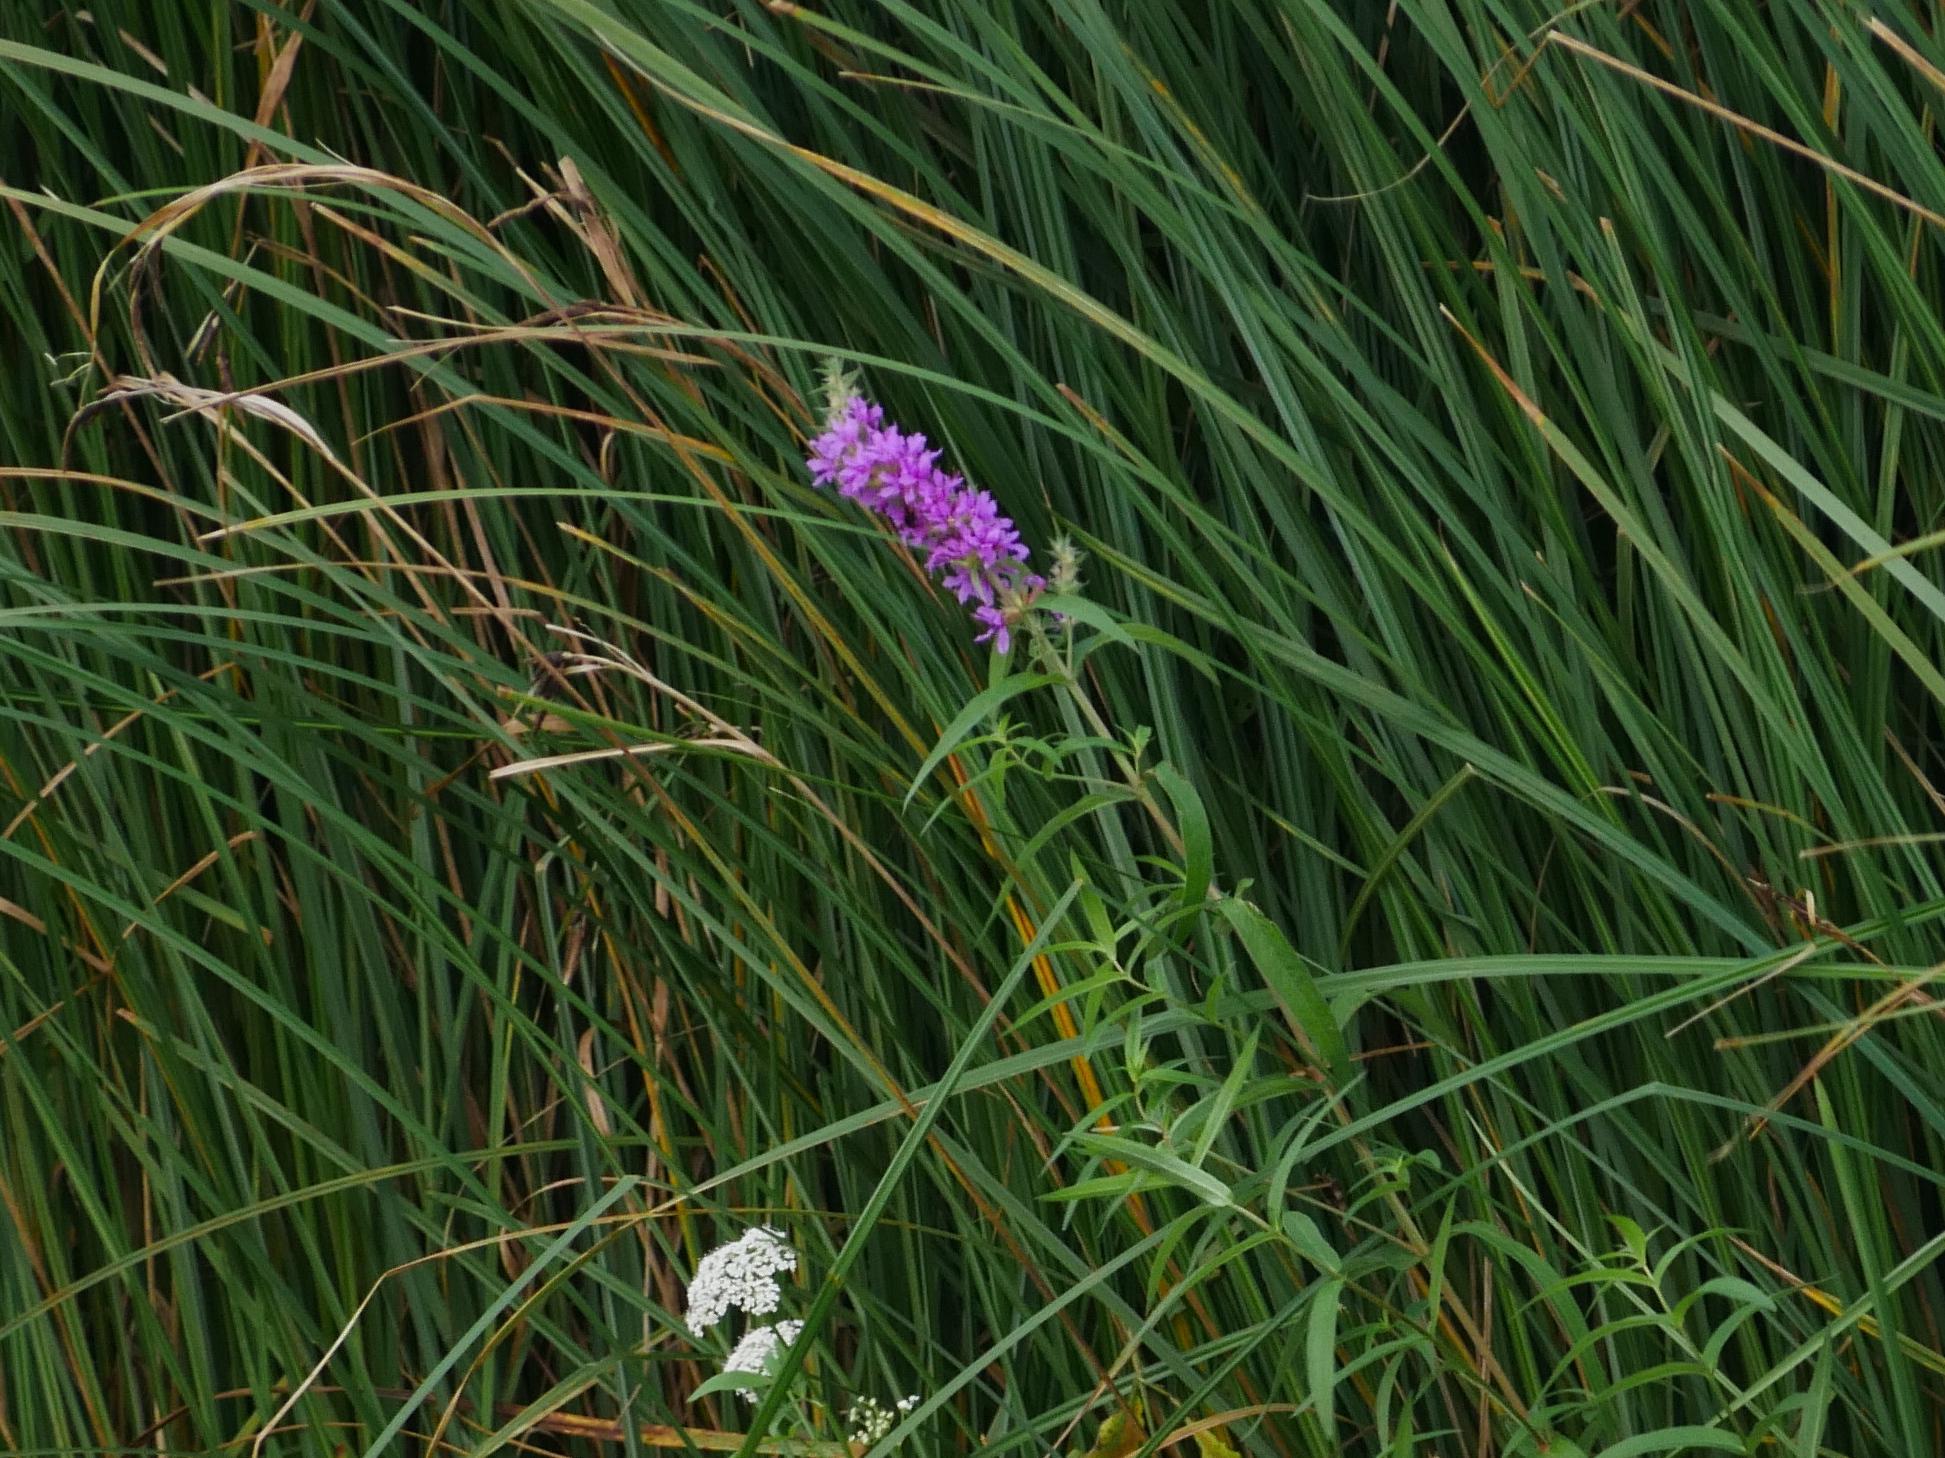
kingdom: Plantae
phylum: Tracheophyta
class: Magnoliopsida
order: Myrtales
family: Lythraceae
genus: Lythrum
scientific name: Lythrum salicaria
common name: Purple loosestrife
